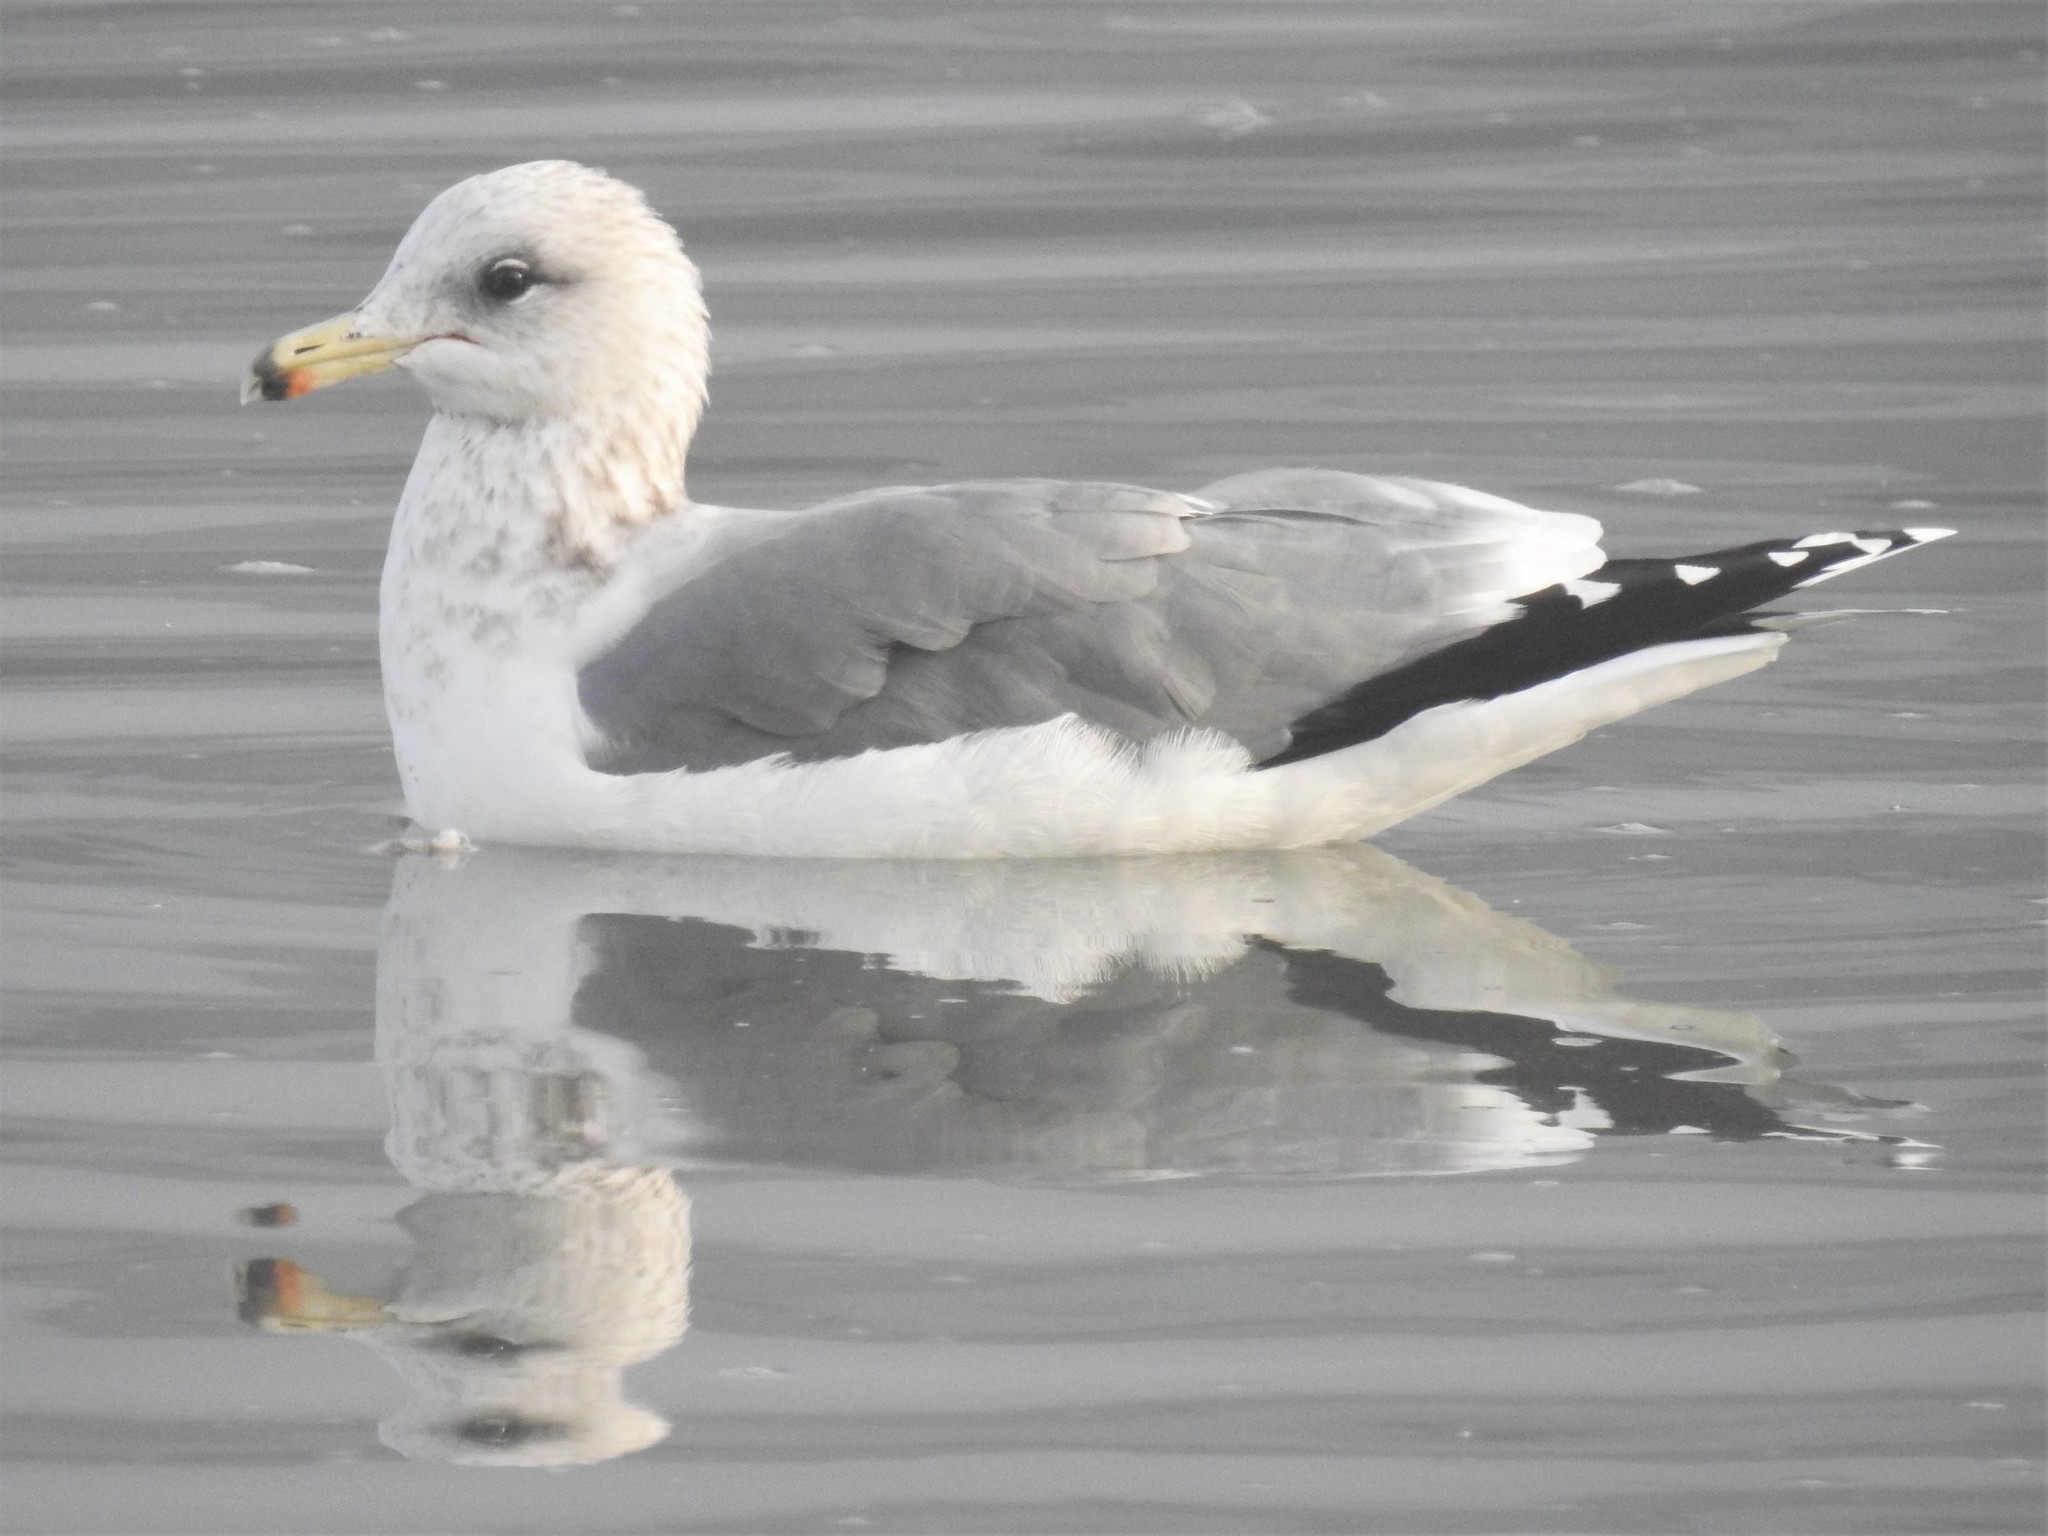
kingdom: Animalia
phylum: Chordata
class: Aves
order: Charadriiformes
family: Laridae
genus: Larus
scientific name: Larus californicus
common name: California gull
